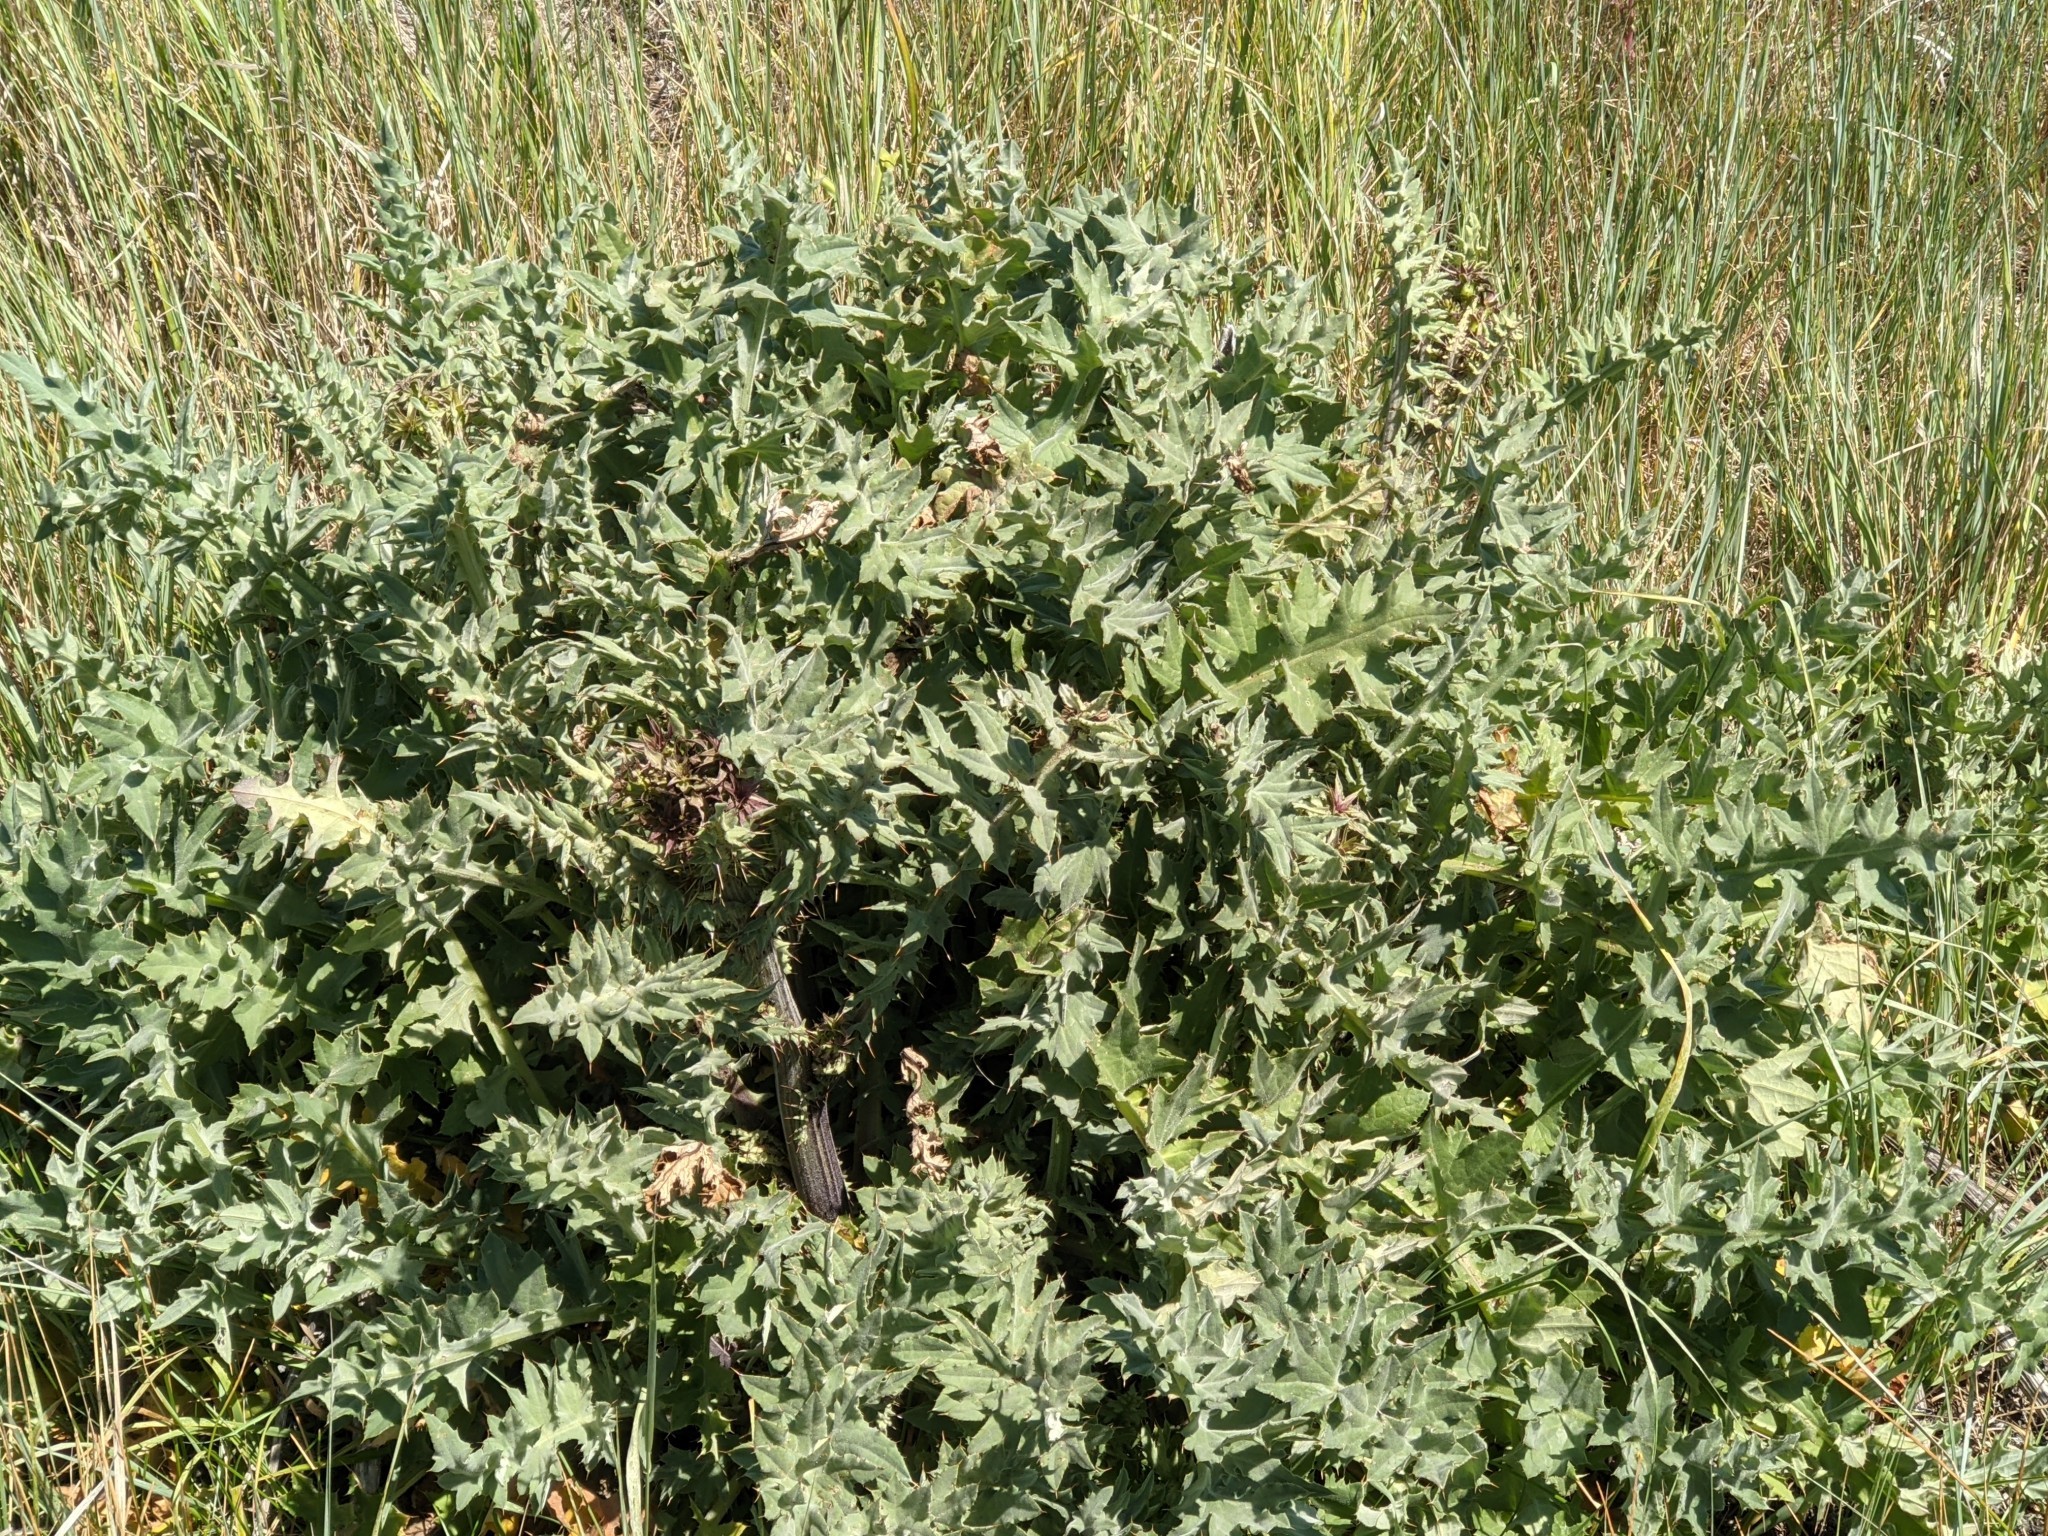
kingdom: Plantae
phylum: Tracheophyta
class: Magnoliopsida
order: Asterales
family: Asteraceae
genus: Cirsium
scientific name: Cirsium fontinale
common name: Fountain thistle
